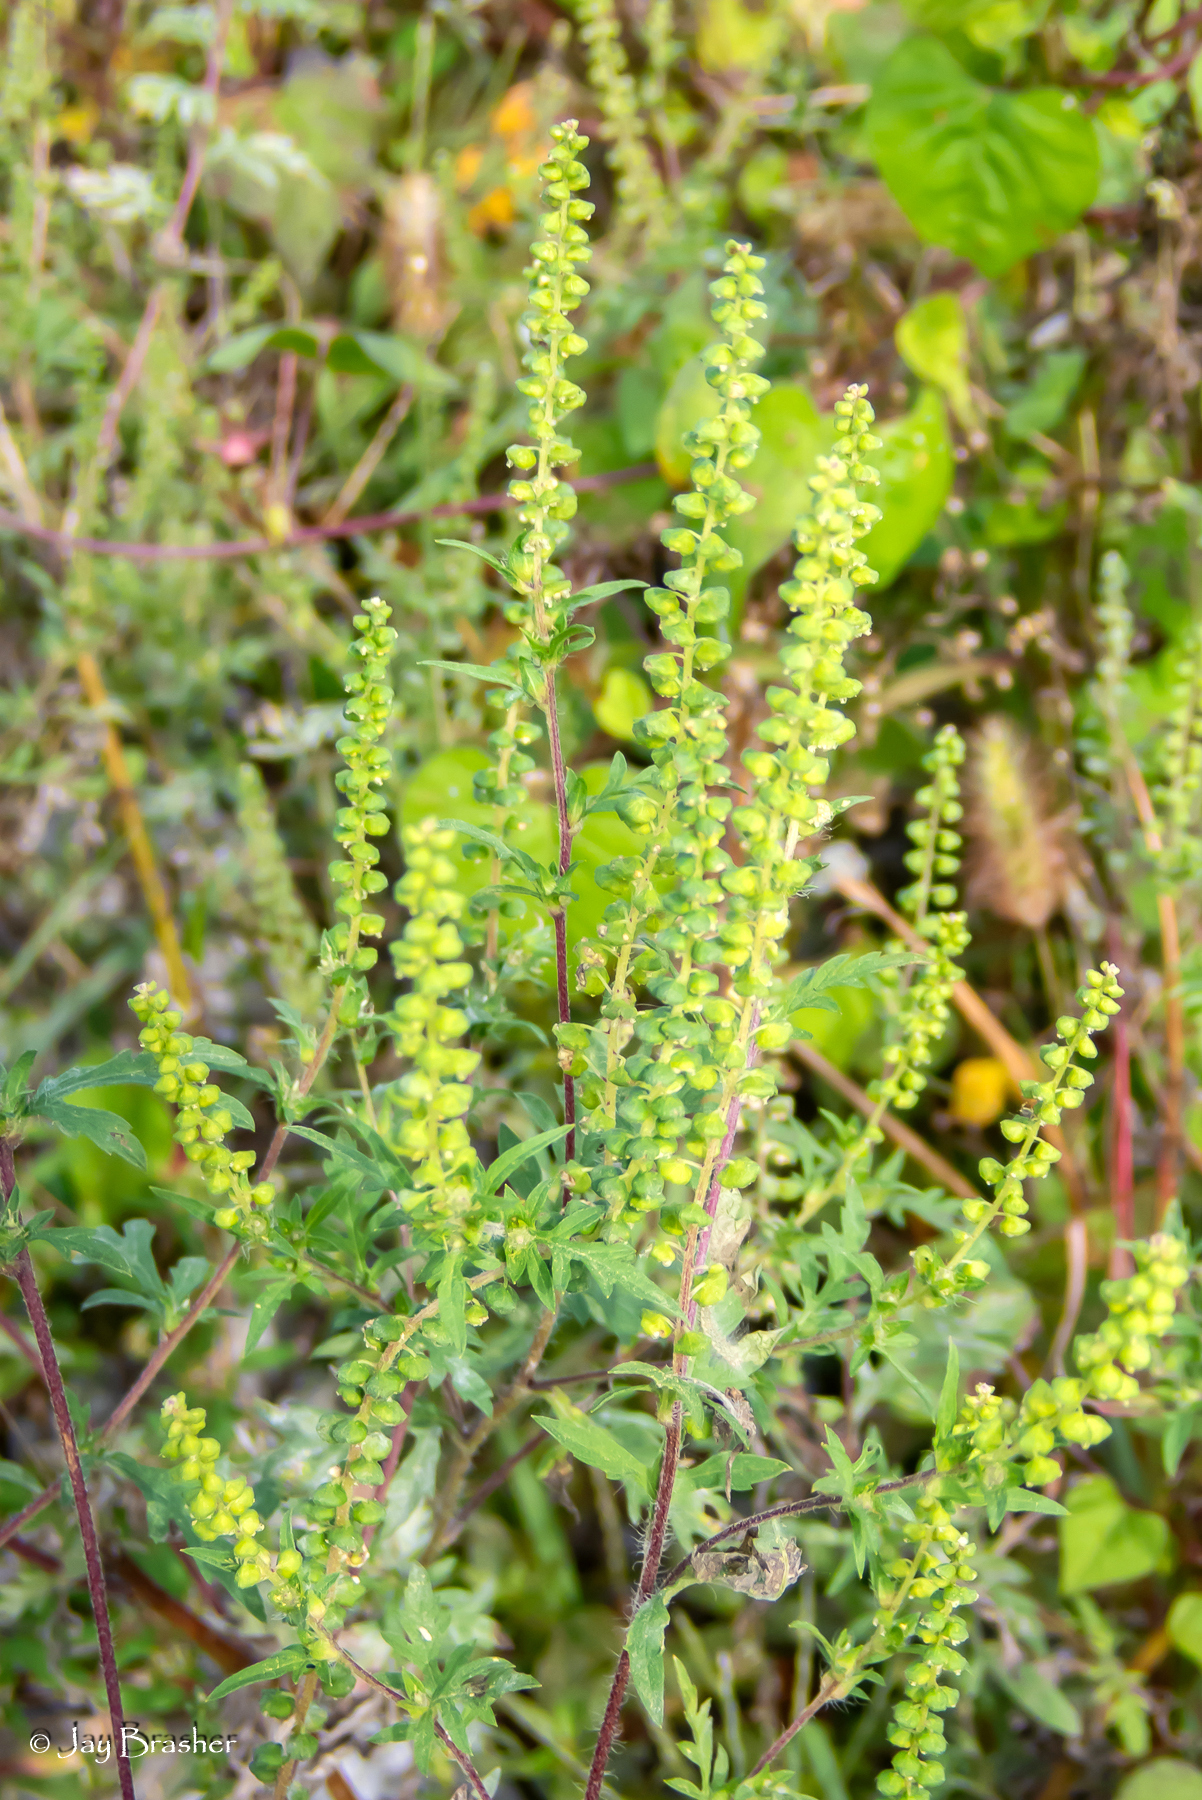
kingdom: Plantae
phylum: Tracheophyta
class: Magnoliopsida
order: Asterales
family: Asteraceae
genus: Ambrosia
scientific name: Ambrosia artemisiifolia
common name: Annual ragweed
